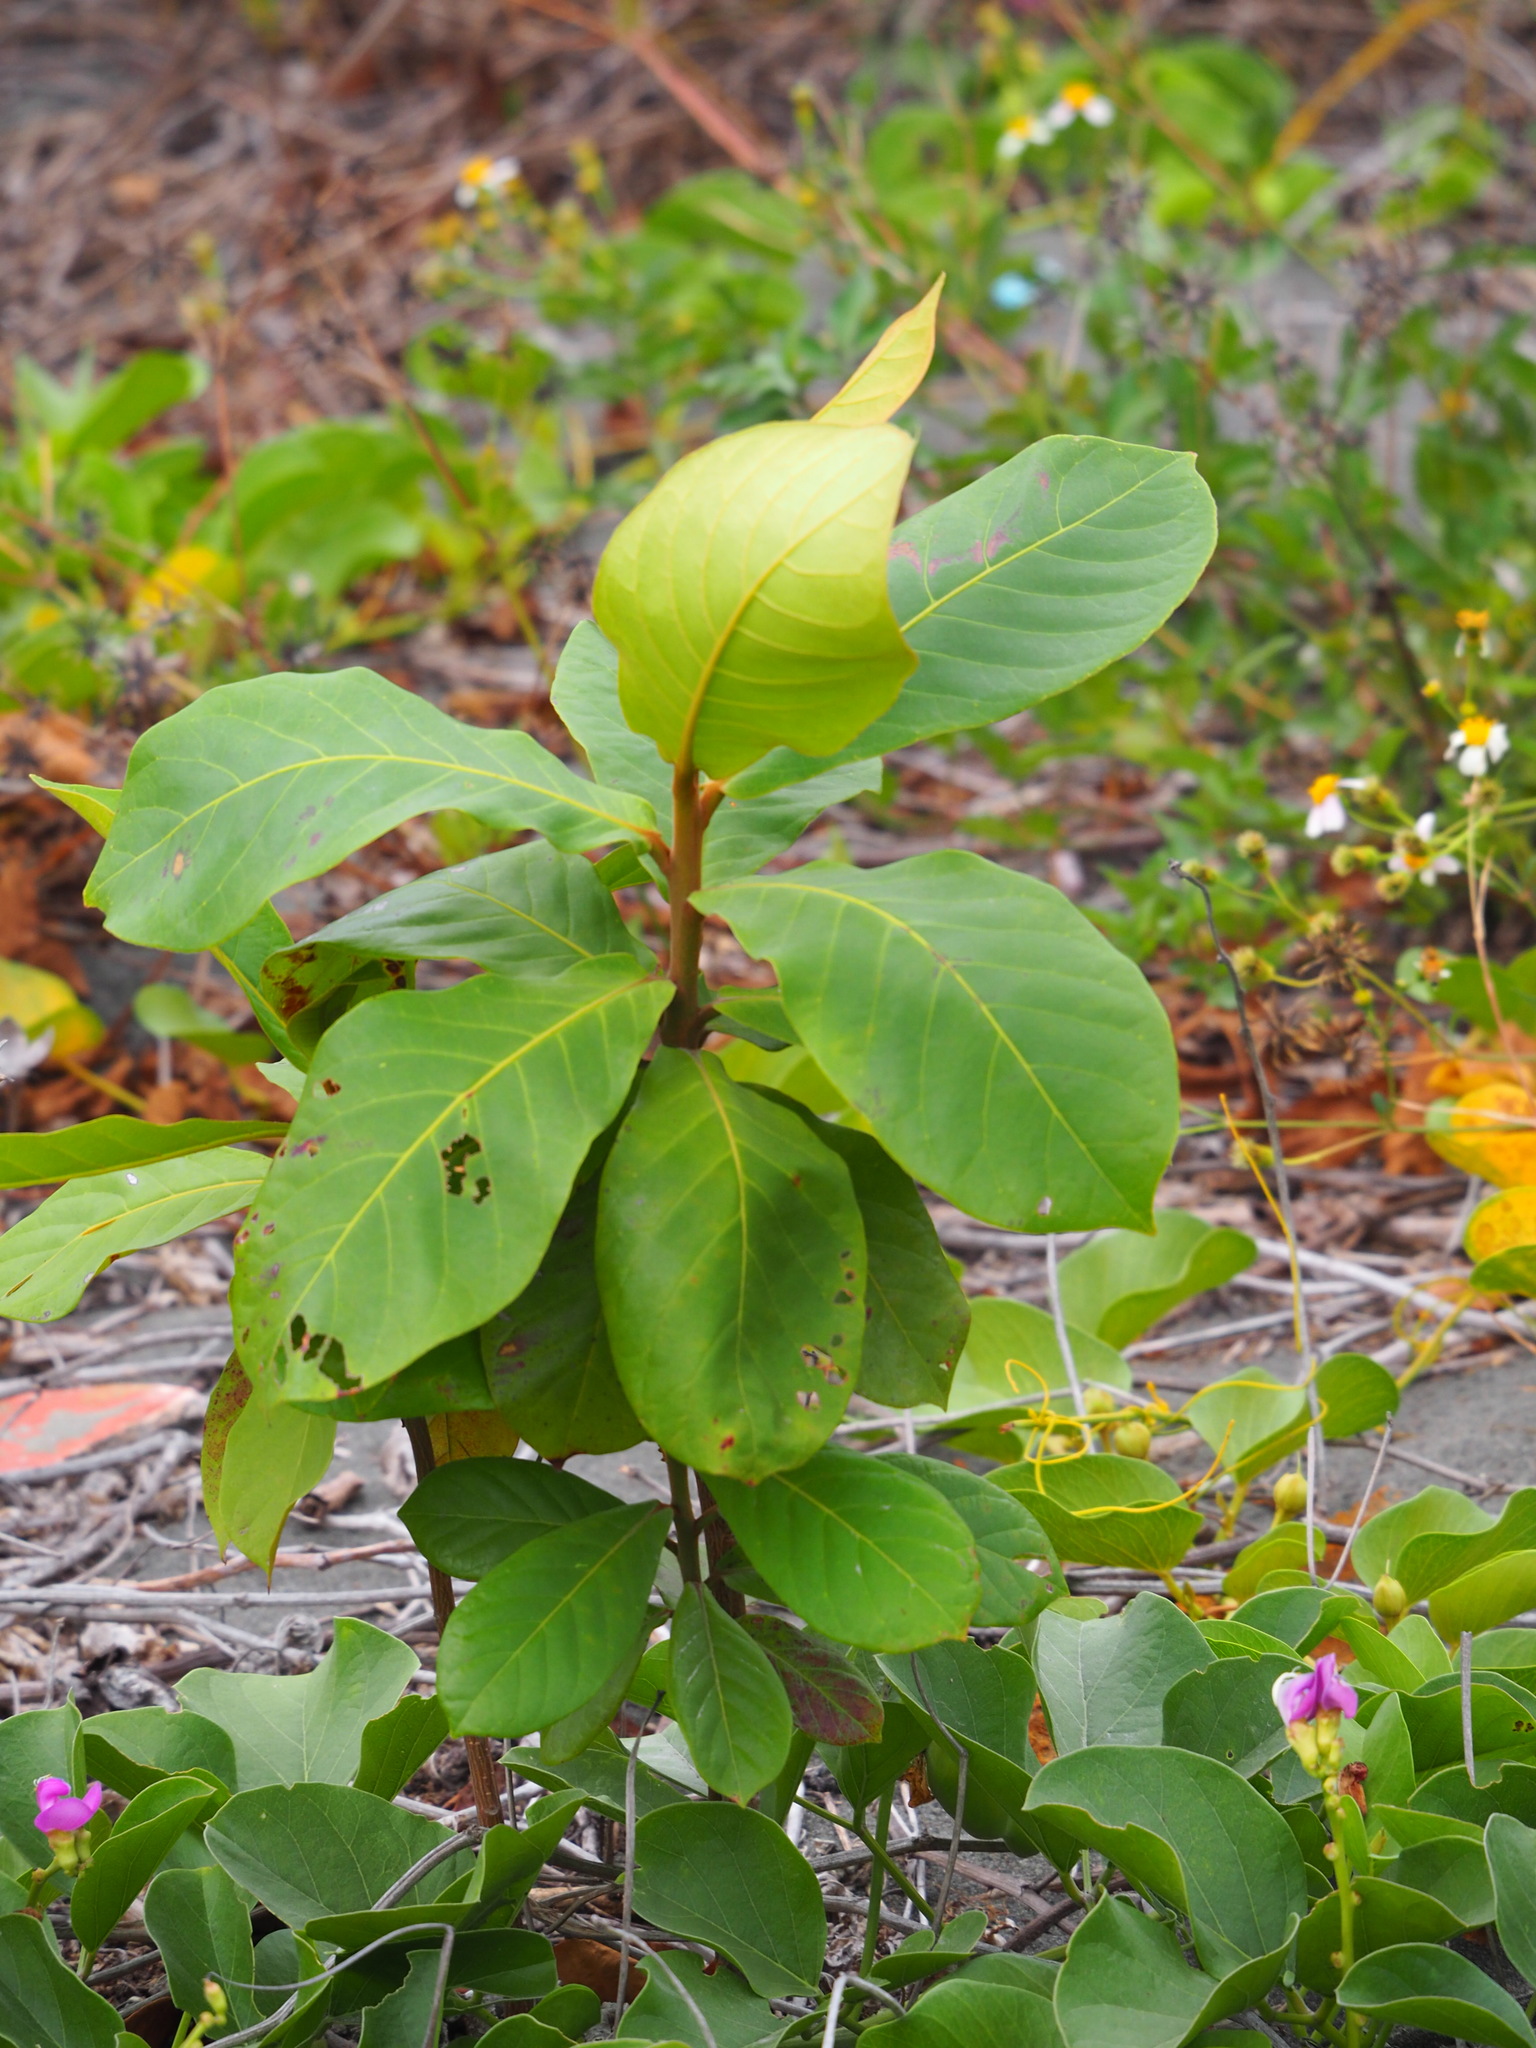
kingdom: Plantae
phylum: Tracheophyta
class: Magnoliopsida
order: Myrtales
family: Combretaceae
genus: Terminalia
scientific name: Terminalia catappa
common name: Tropical almond
